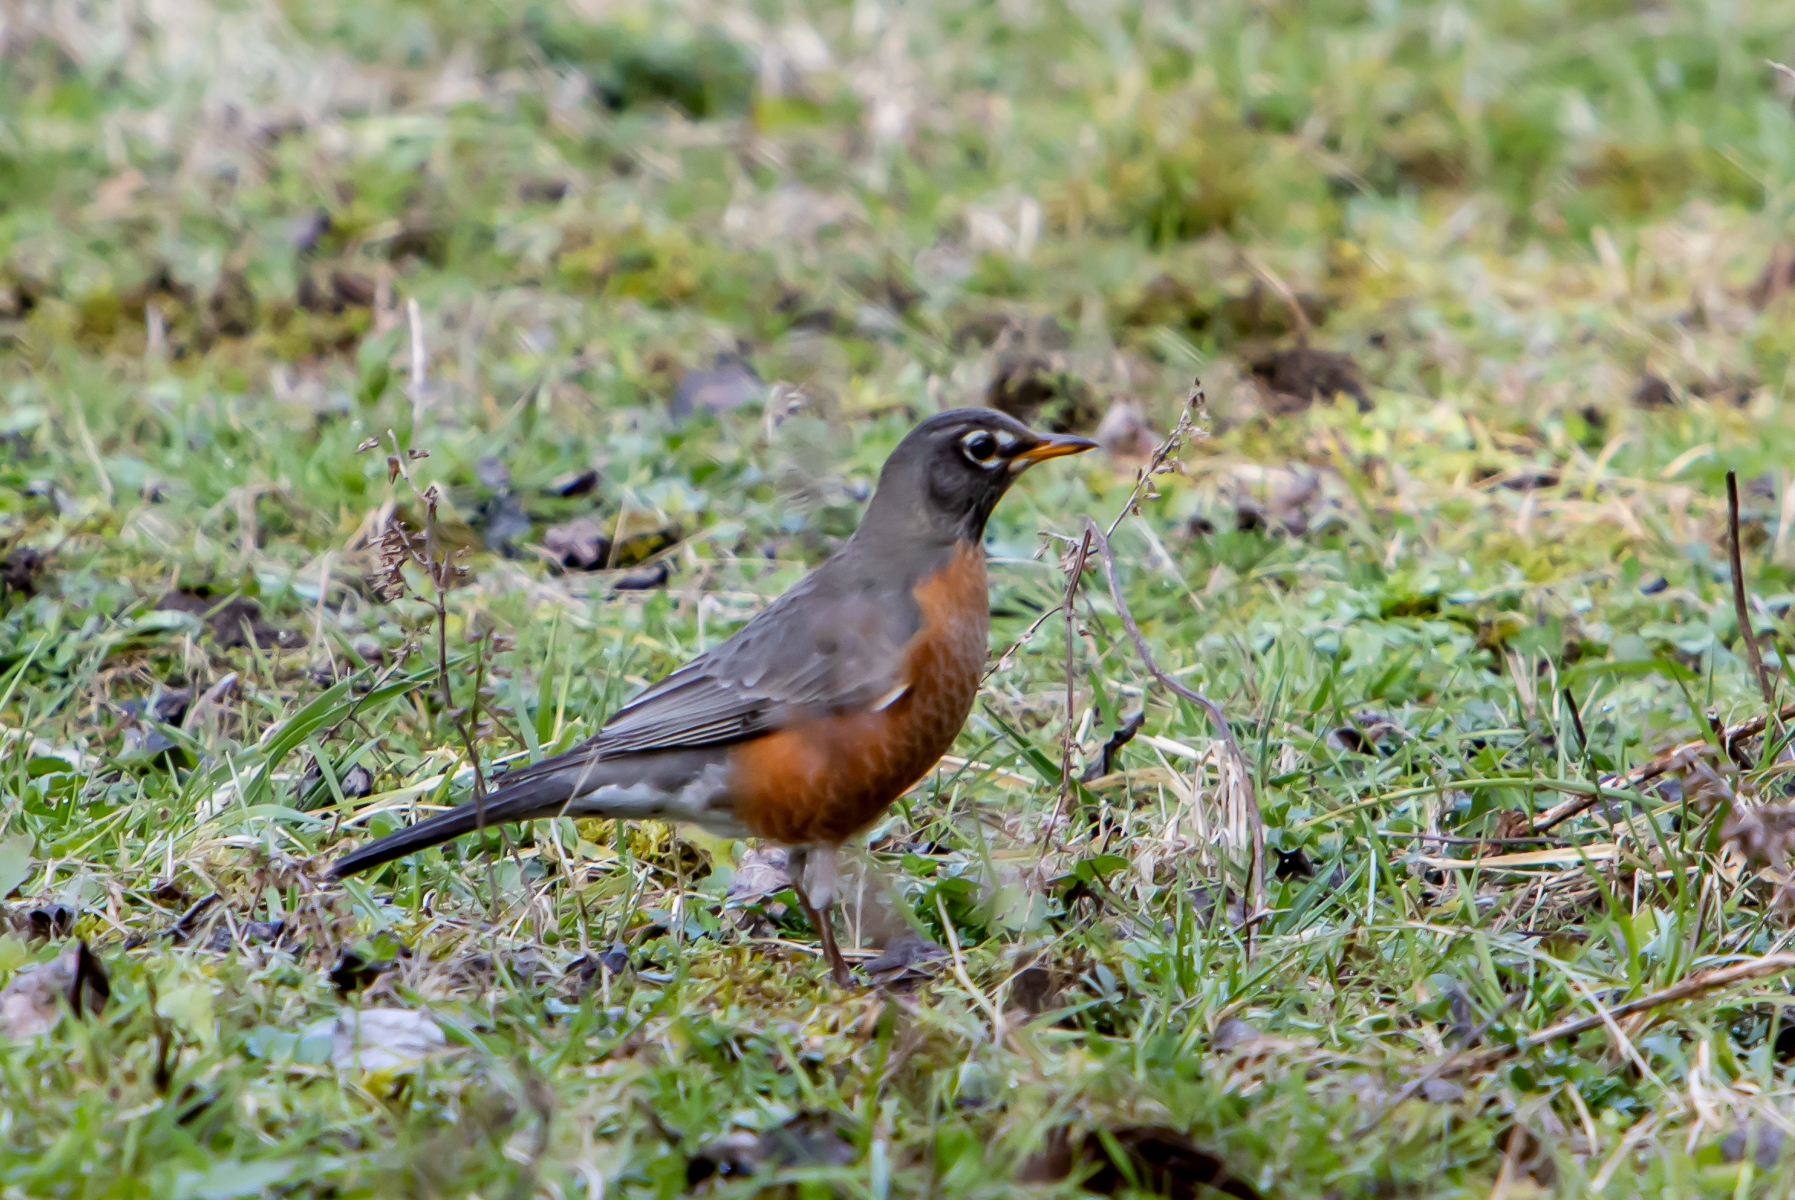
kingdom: Animalia
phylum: Chordata
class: Aves
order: Passeriformes
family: Turdidae
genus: Turdus
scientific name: Turdus migratorius
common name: American robin
